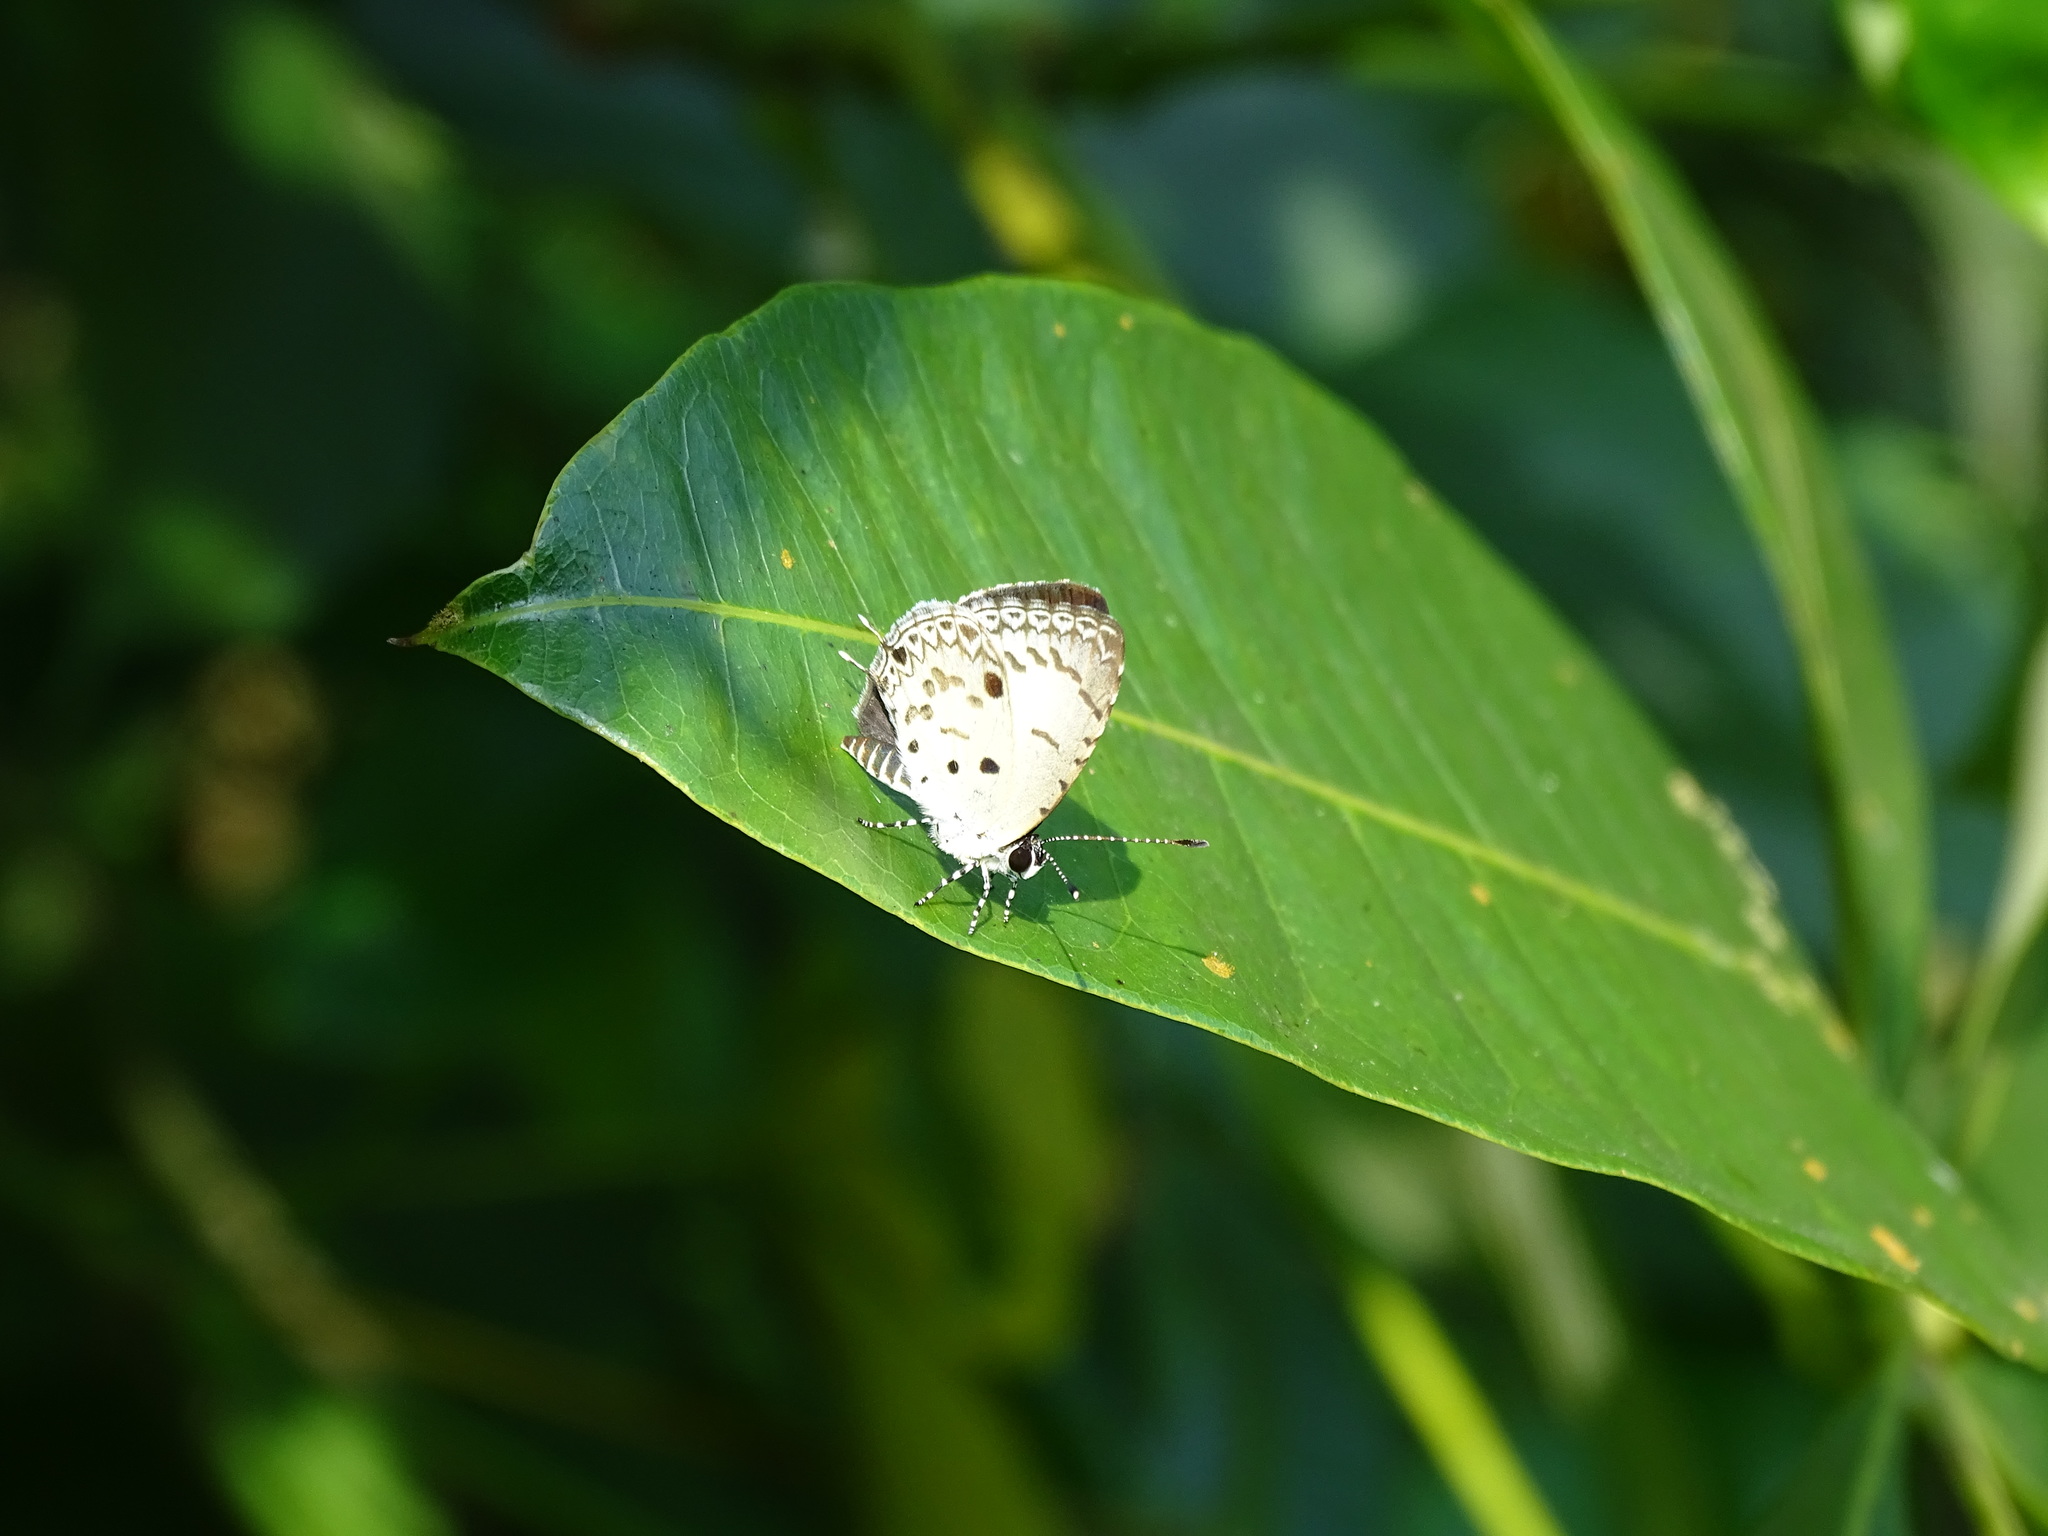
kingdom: Animalia
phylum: Arthropoda
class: Insecta
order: Lepidoptera
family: Lycaenidae
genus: Megisba
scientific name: Megisba malaya
